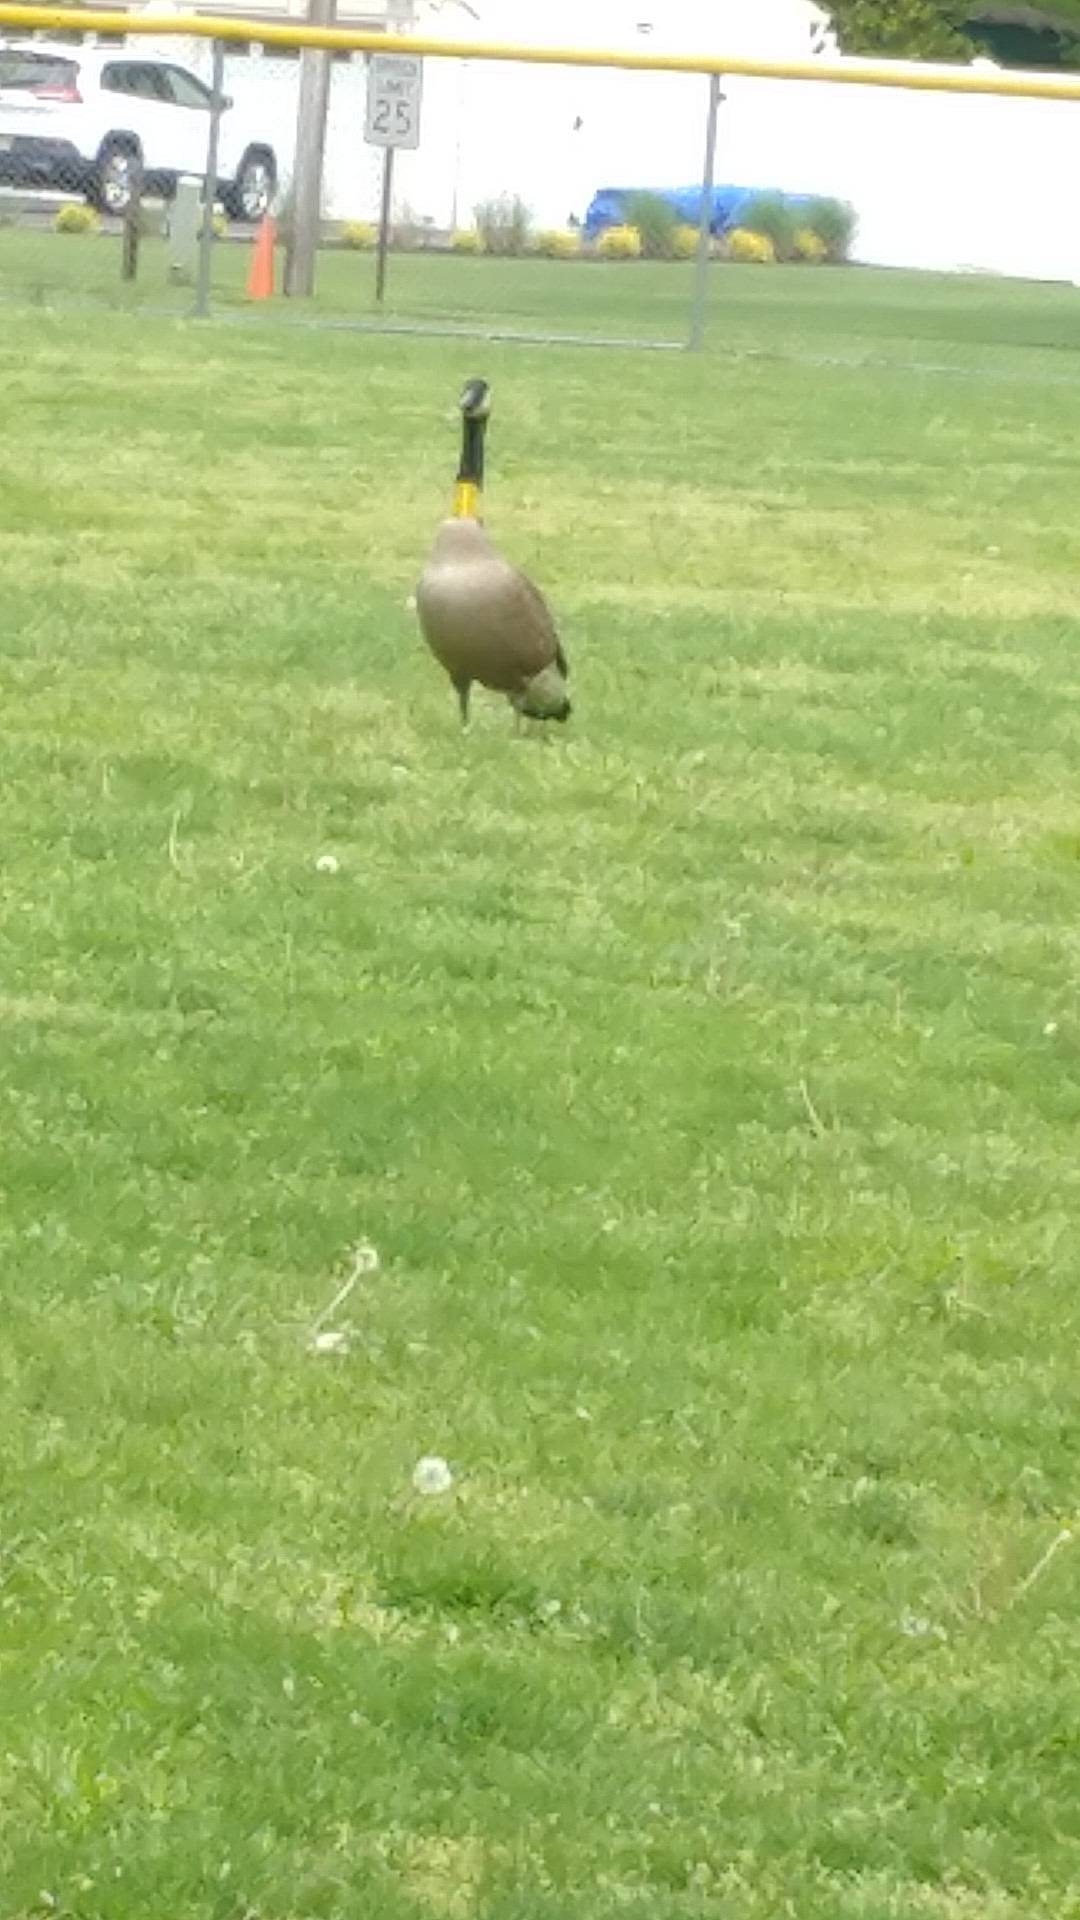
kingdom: Animalia
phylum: Chordata
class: Aves
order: Anseriformes
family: Anatidae
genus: Branta
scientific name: Branta canadensis
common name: Canada goose
